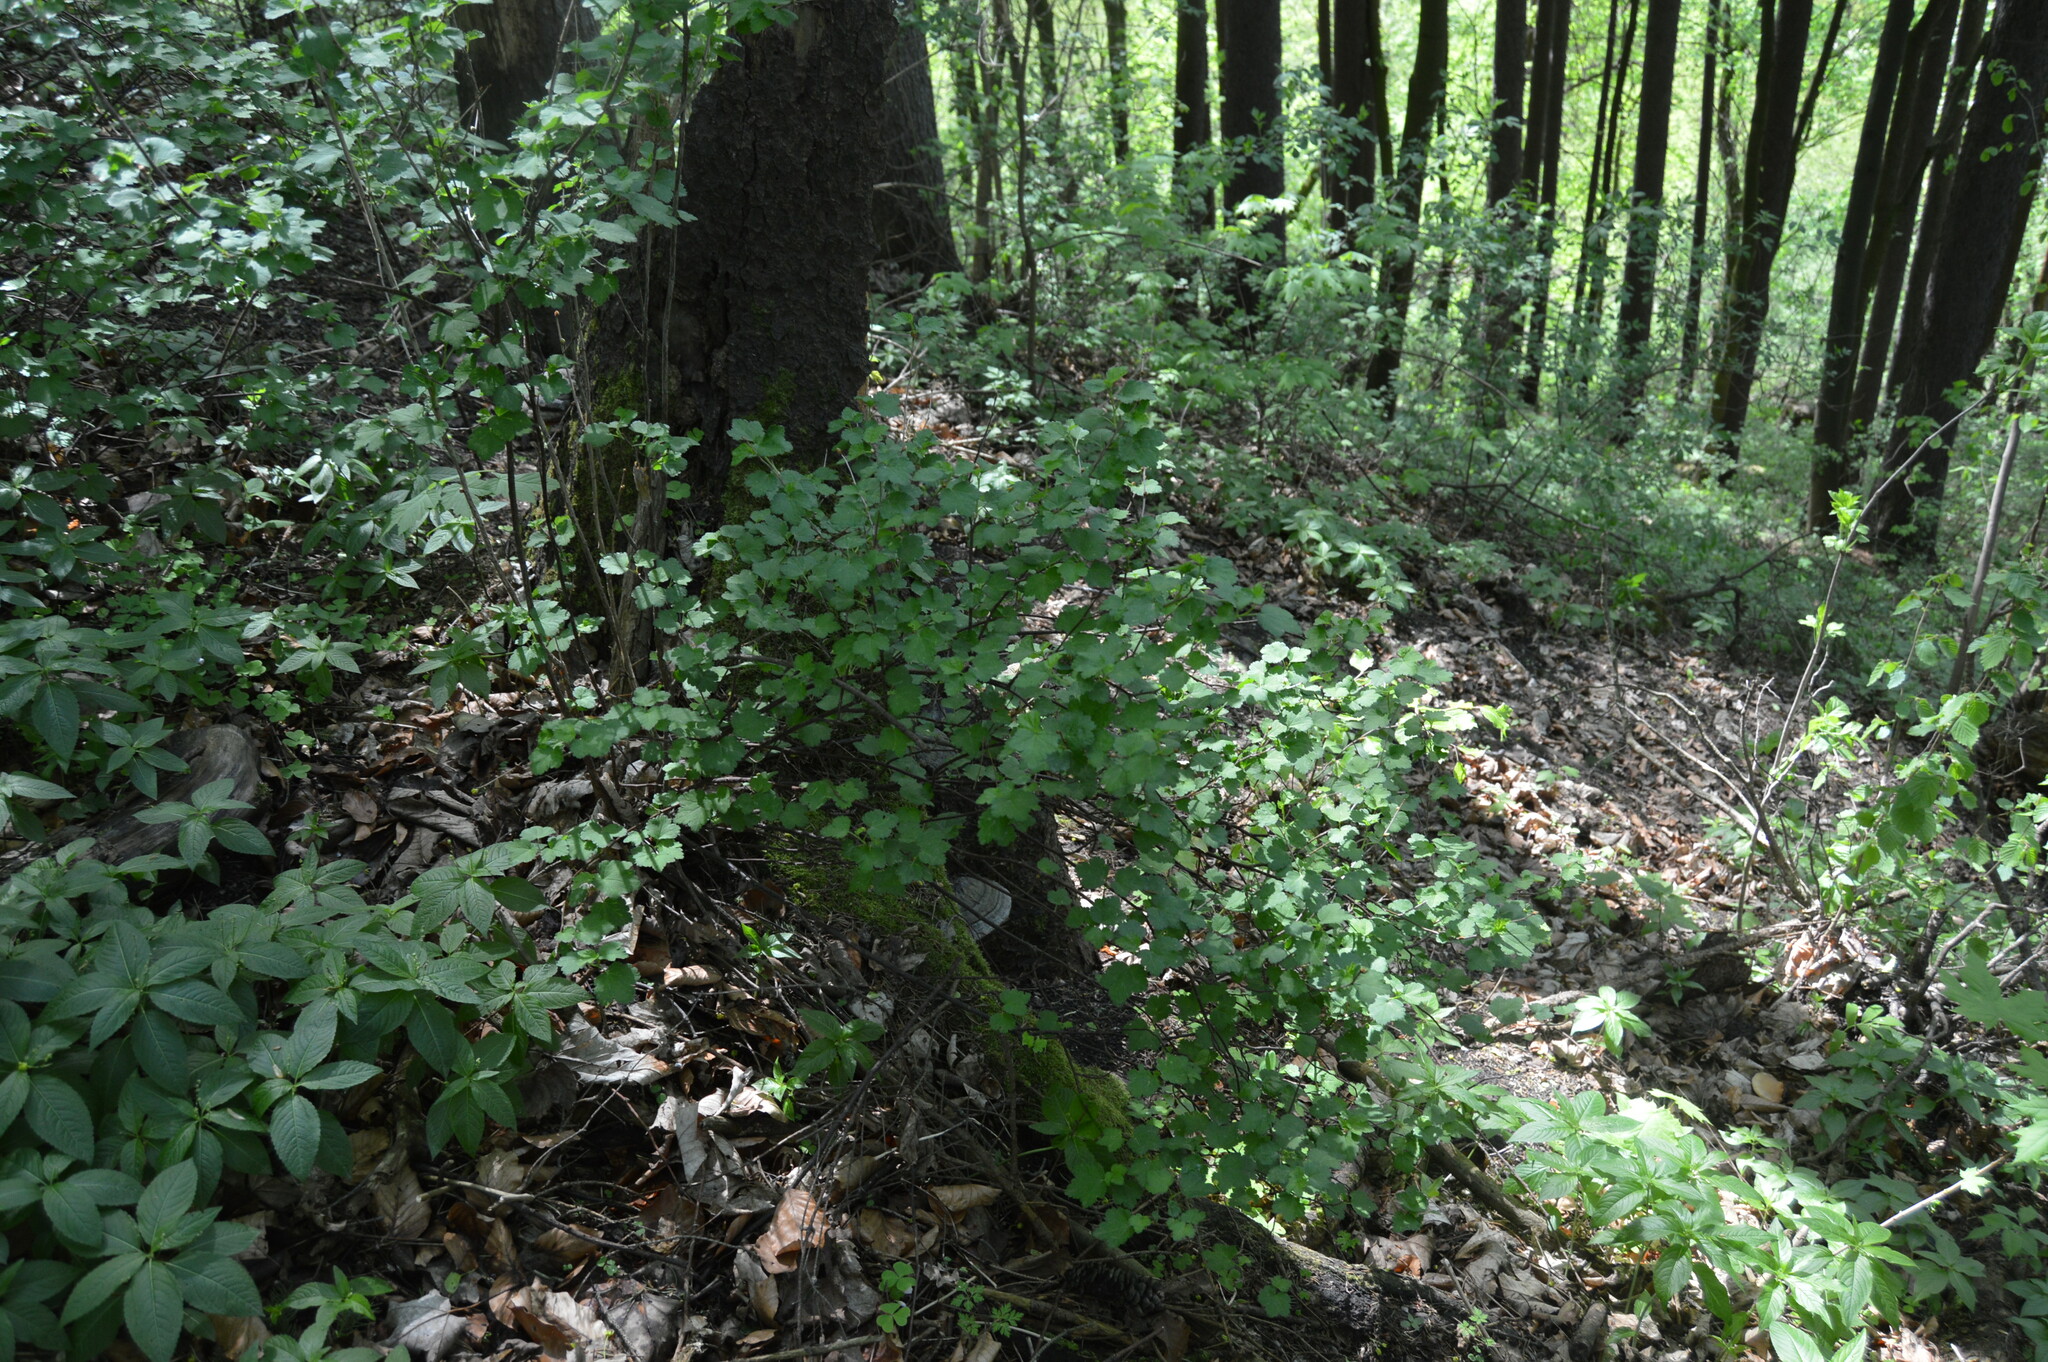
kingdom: Plantae
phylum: Tracheophyta
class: Magnoliopsida
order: Saxifragales
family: Grossulariaceae
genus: Ribes
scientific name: Ribes uva-crispa
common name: Gooseberry
